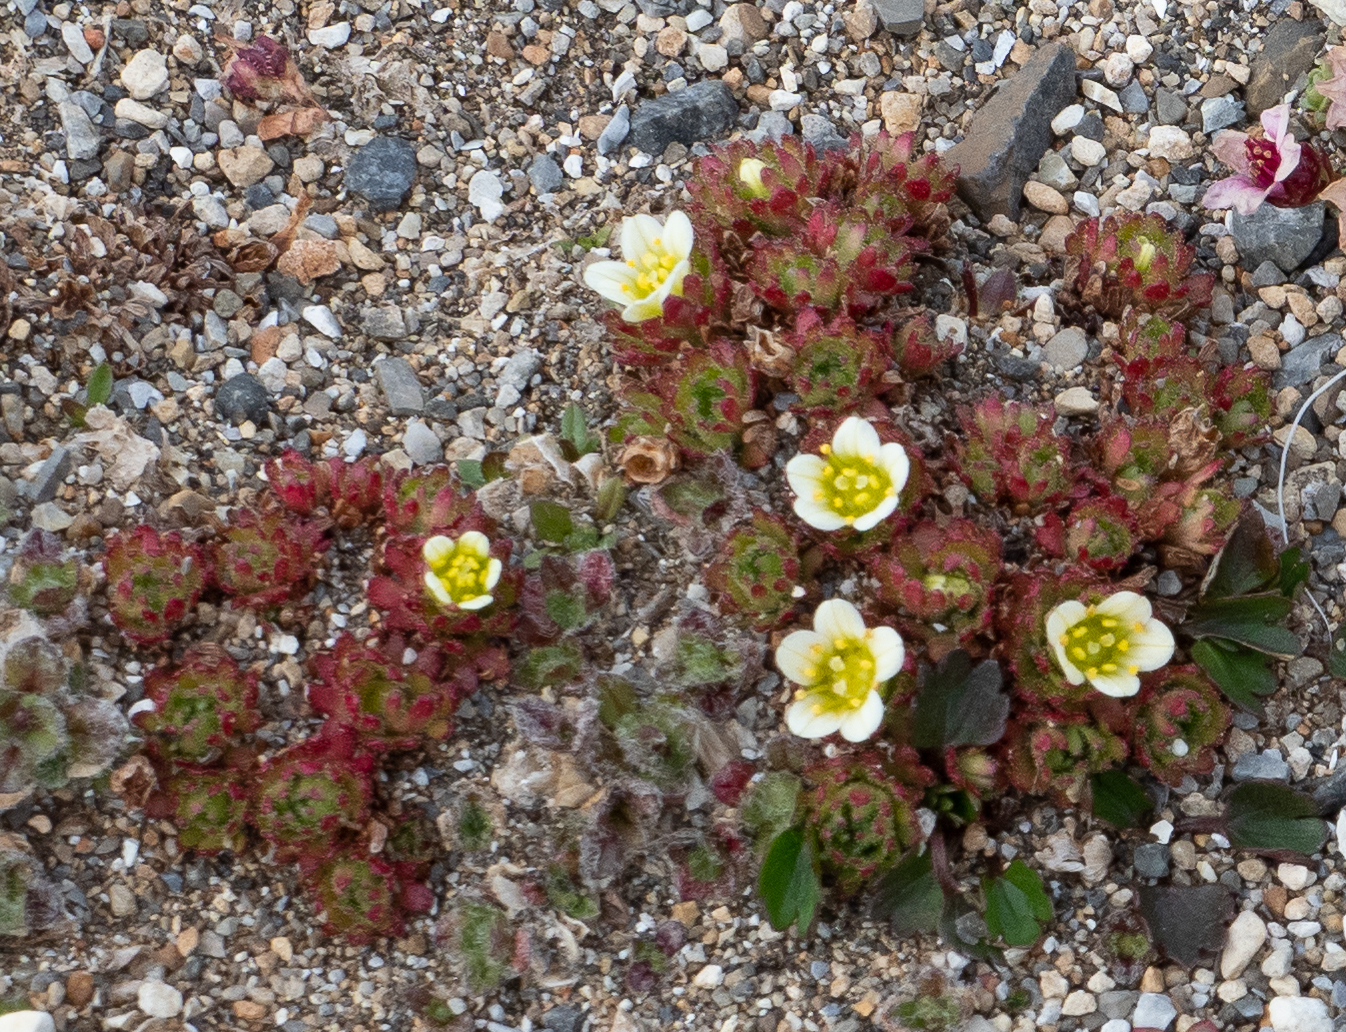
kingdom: Plantae
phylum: Tracheophyta
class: Magnoliopsida
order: Saxifragales
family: Saxifragaceae
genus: Saxifraga
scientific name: Saxifraga cespitosa
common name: Tufted saxifrage
